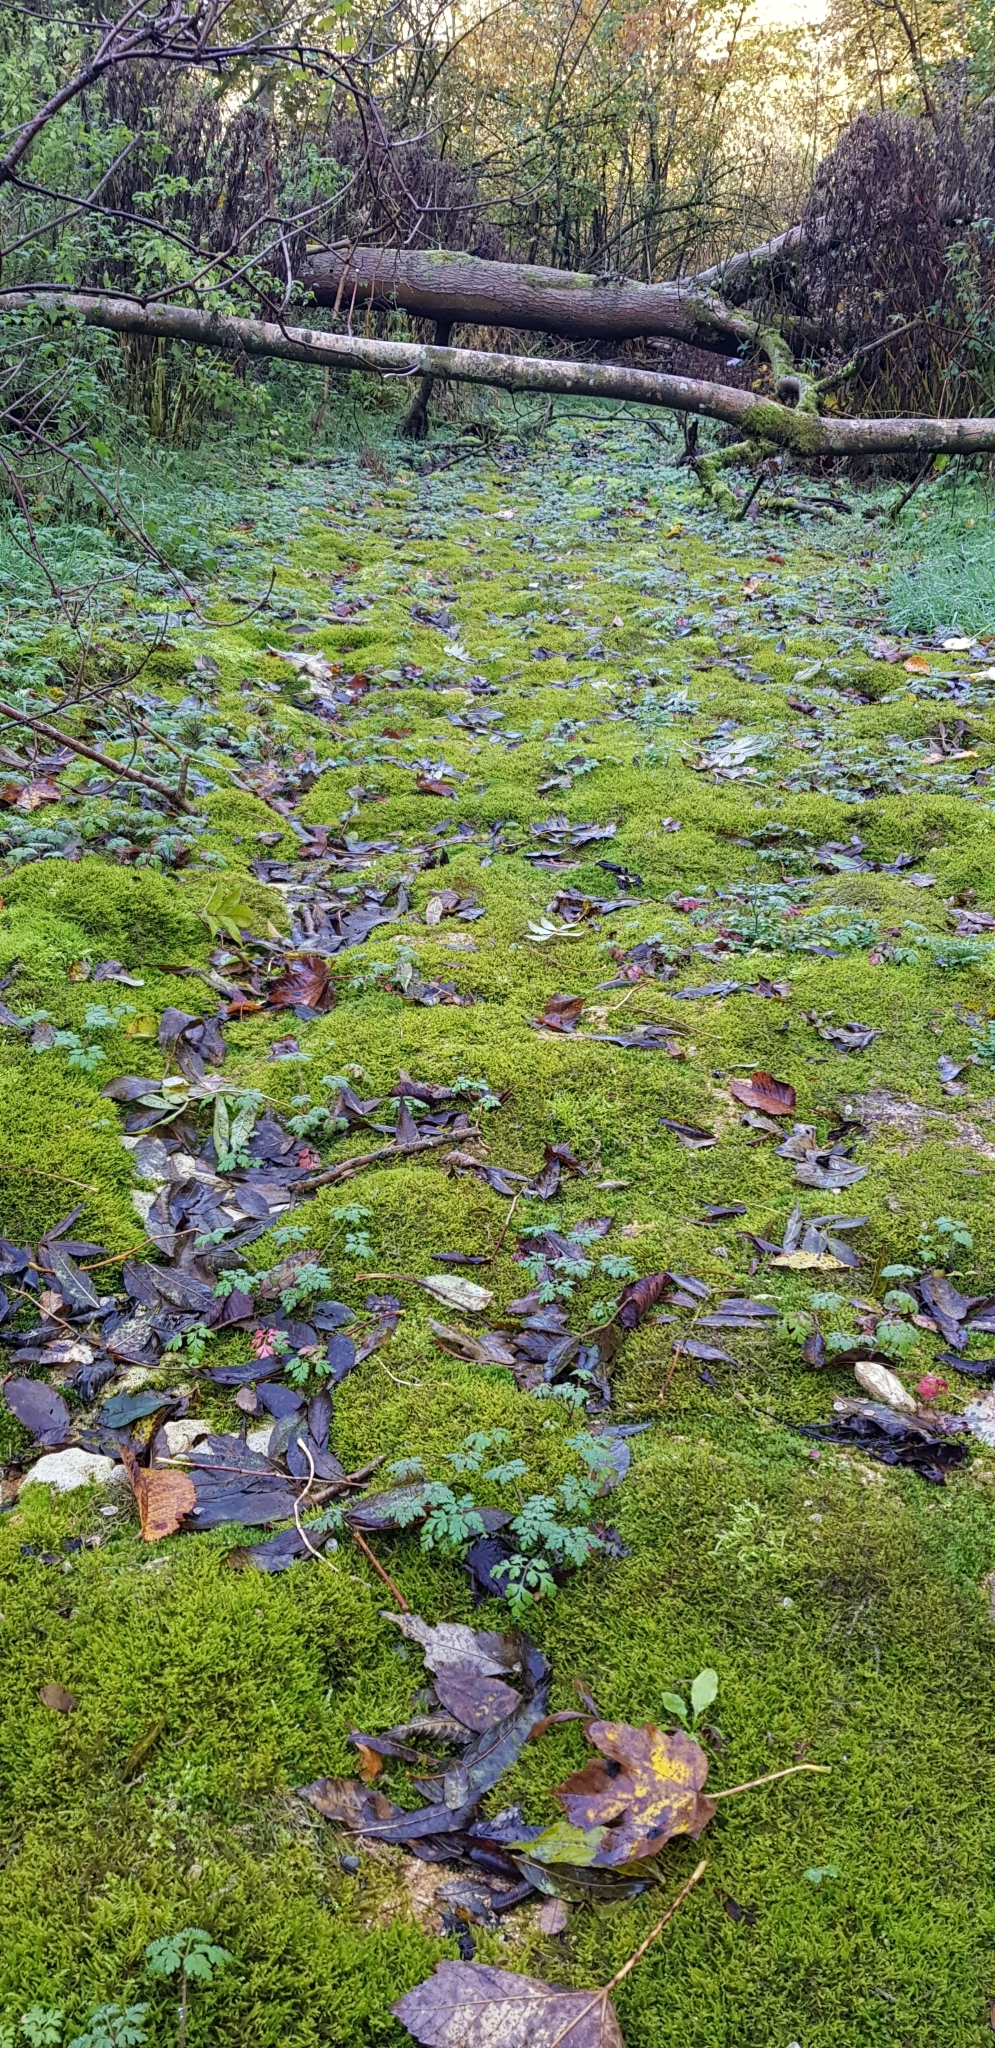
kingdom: Plantae
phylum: Bryophyta
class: Bryopsida
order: Hypnales
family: Amblystegiaceae
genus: Cratoneuron
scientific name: Cratoneuron filicinum
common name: Fern-leaved hook moss
